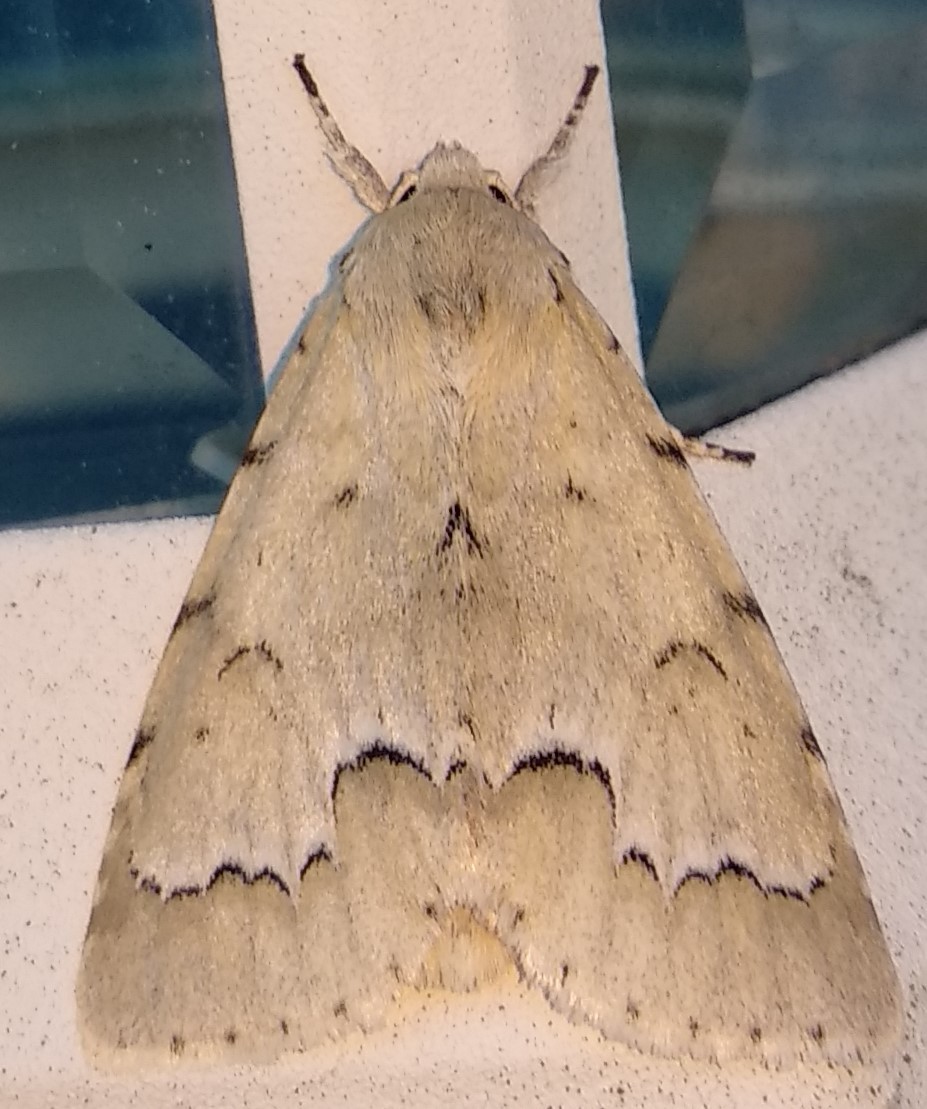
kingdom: Animalia
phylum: Arthropoda
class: Insecta
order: Lepidoptera
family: Noctuidae
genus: Acronicta
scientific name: Acronicta innotata
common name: Unmarked dagger
